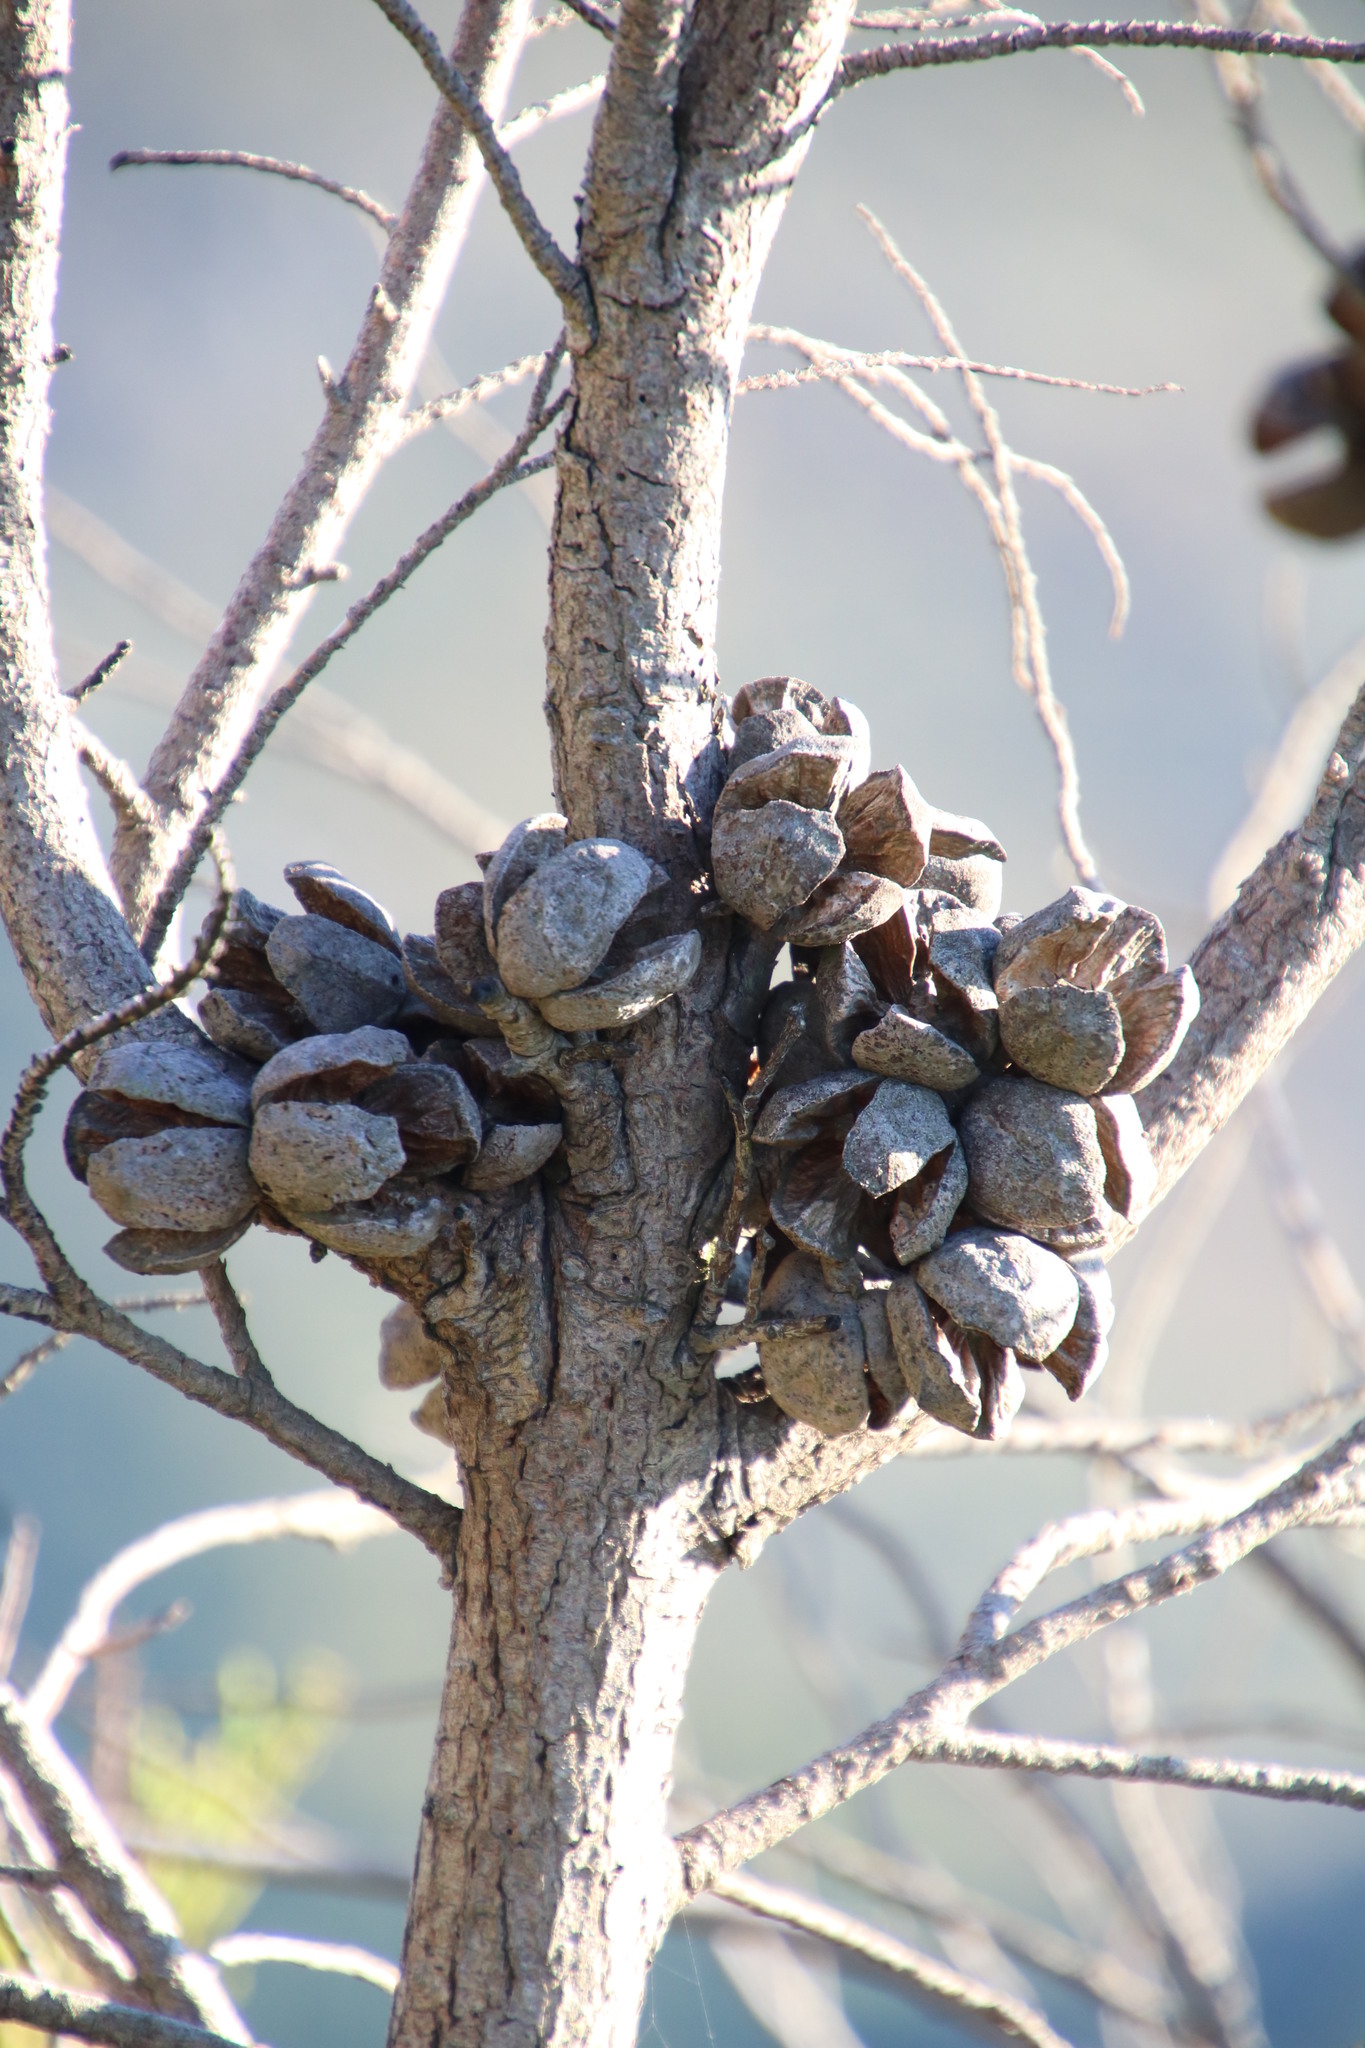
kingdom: Plantae
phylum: Tracheophyta
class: Pinopsida
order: Pinales
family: Cupressaceae
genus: Widdringtonia
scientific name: Widdringtonia nodiflora
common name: Cape cypress
